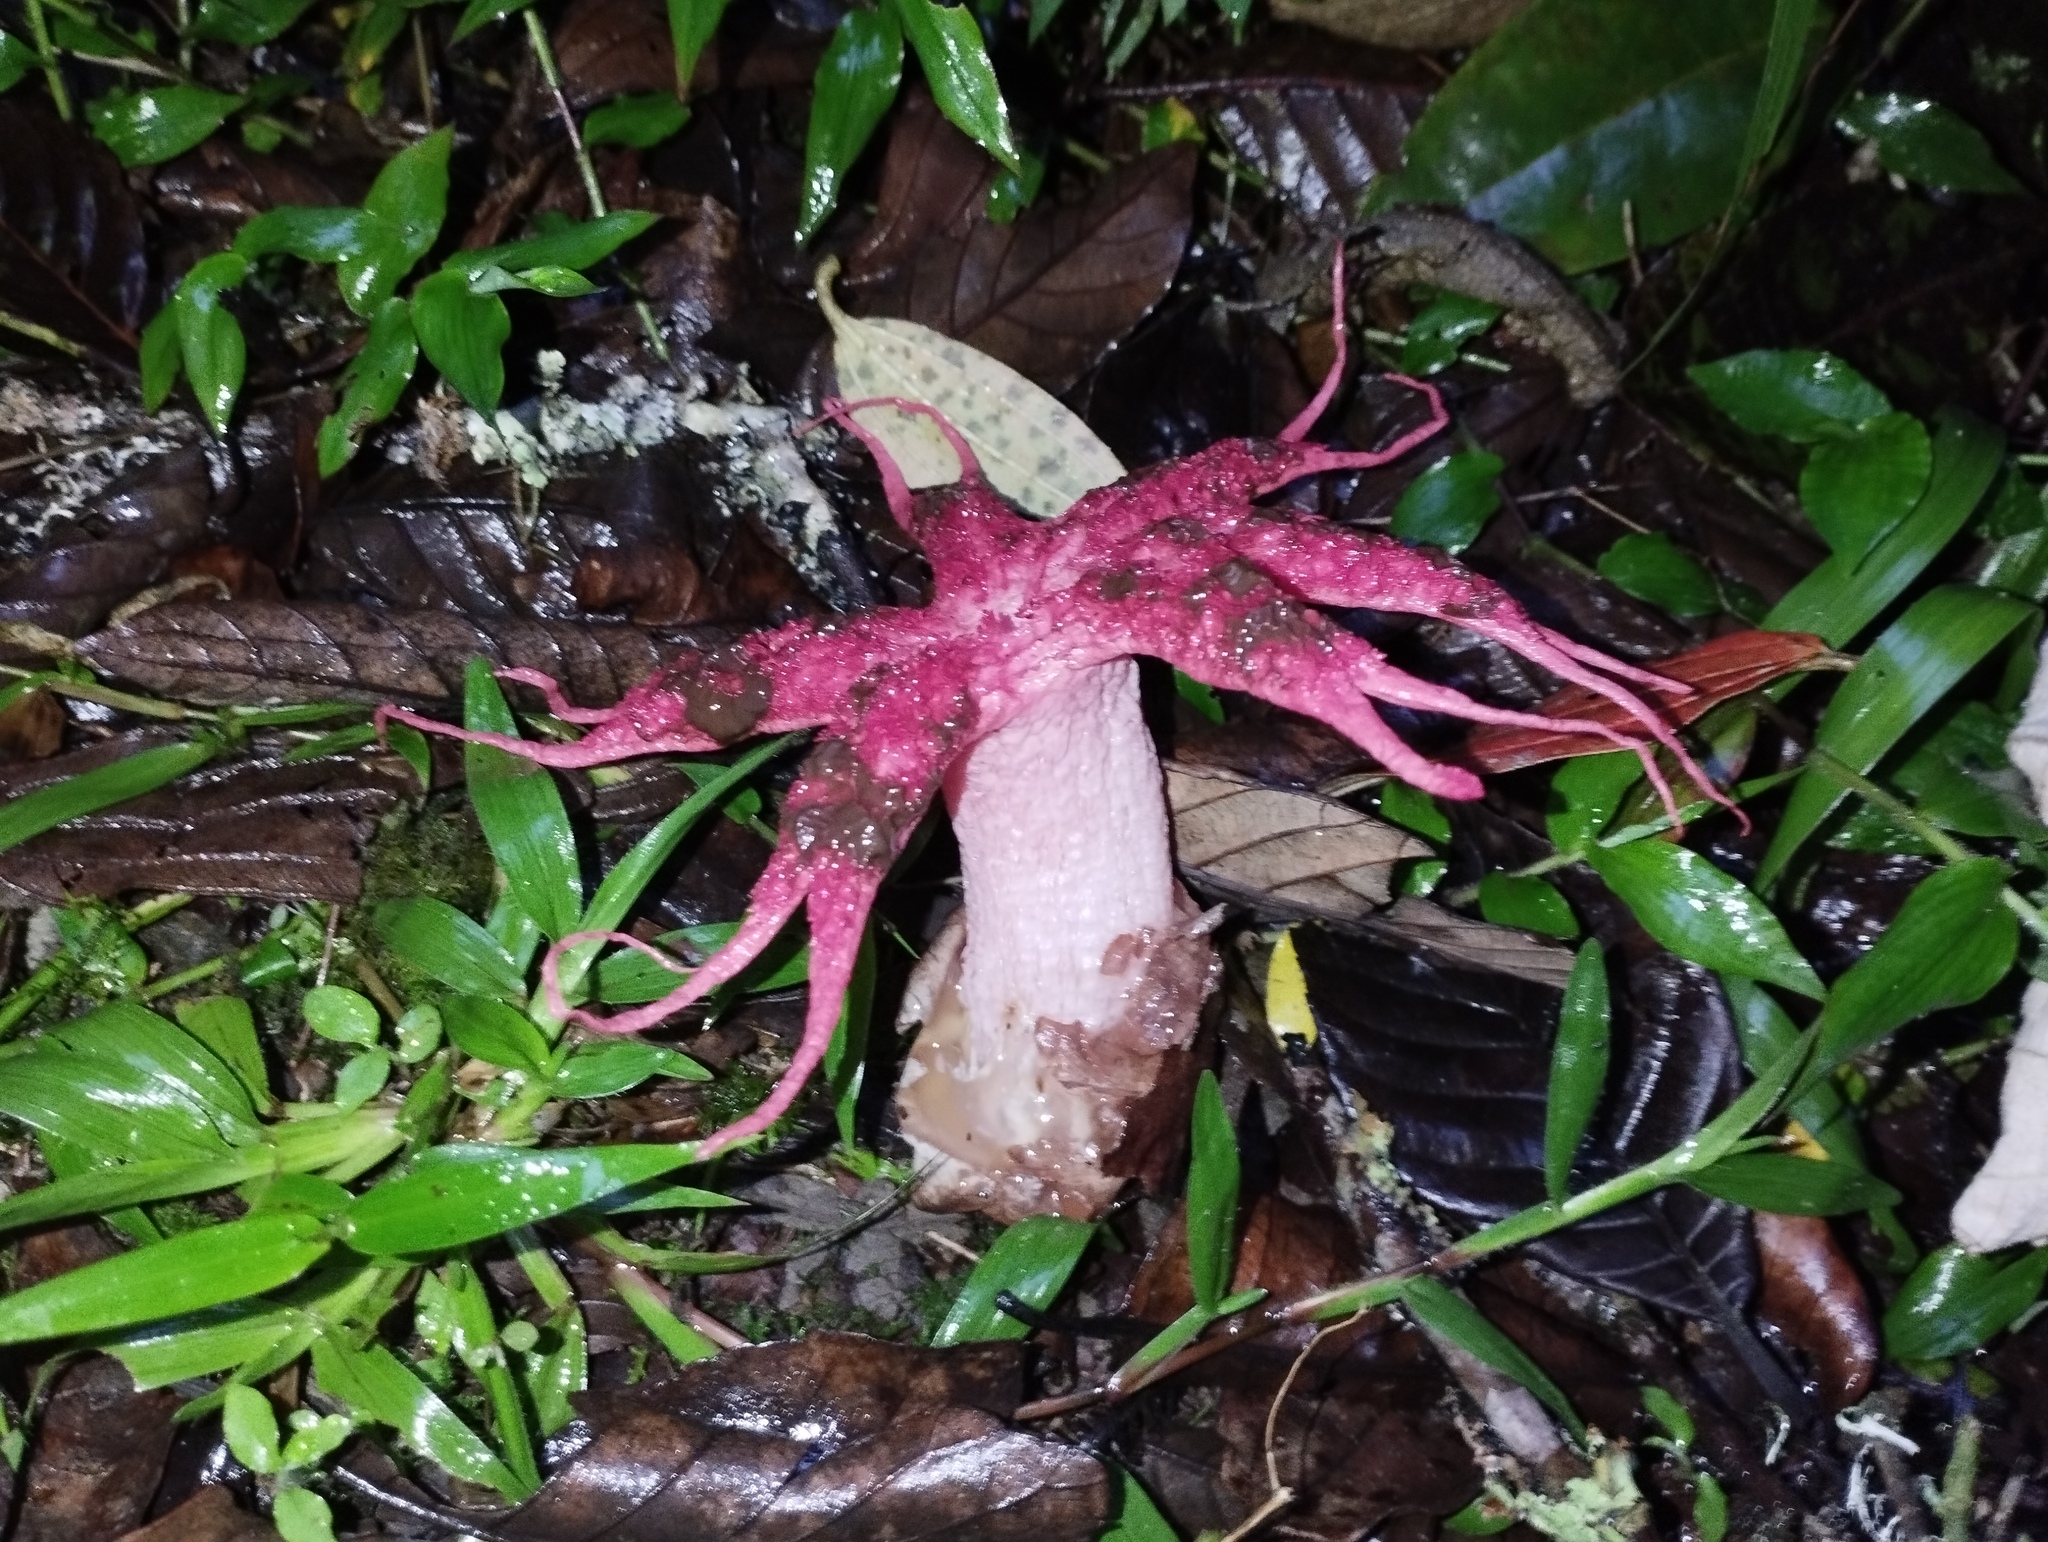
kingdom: Fungi
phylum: Basidiomycota
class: Agaricomycetes
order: Phallales
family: Phallaceae
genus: Aseroe
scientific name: Aseroe rubra
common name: Starfish fungus
